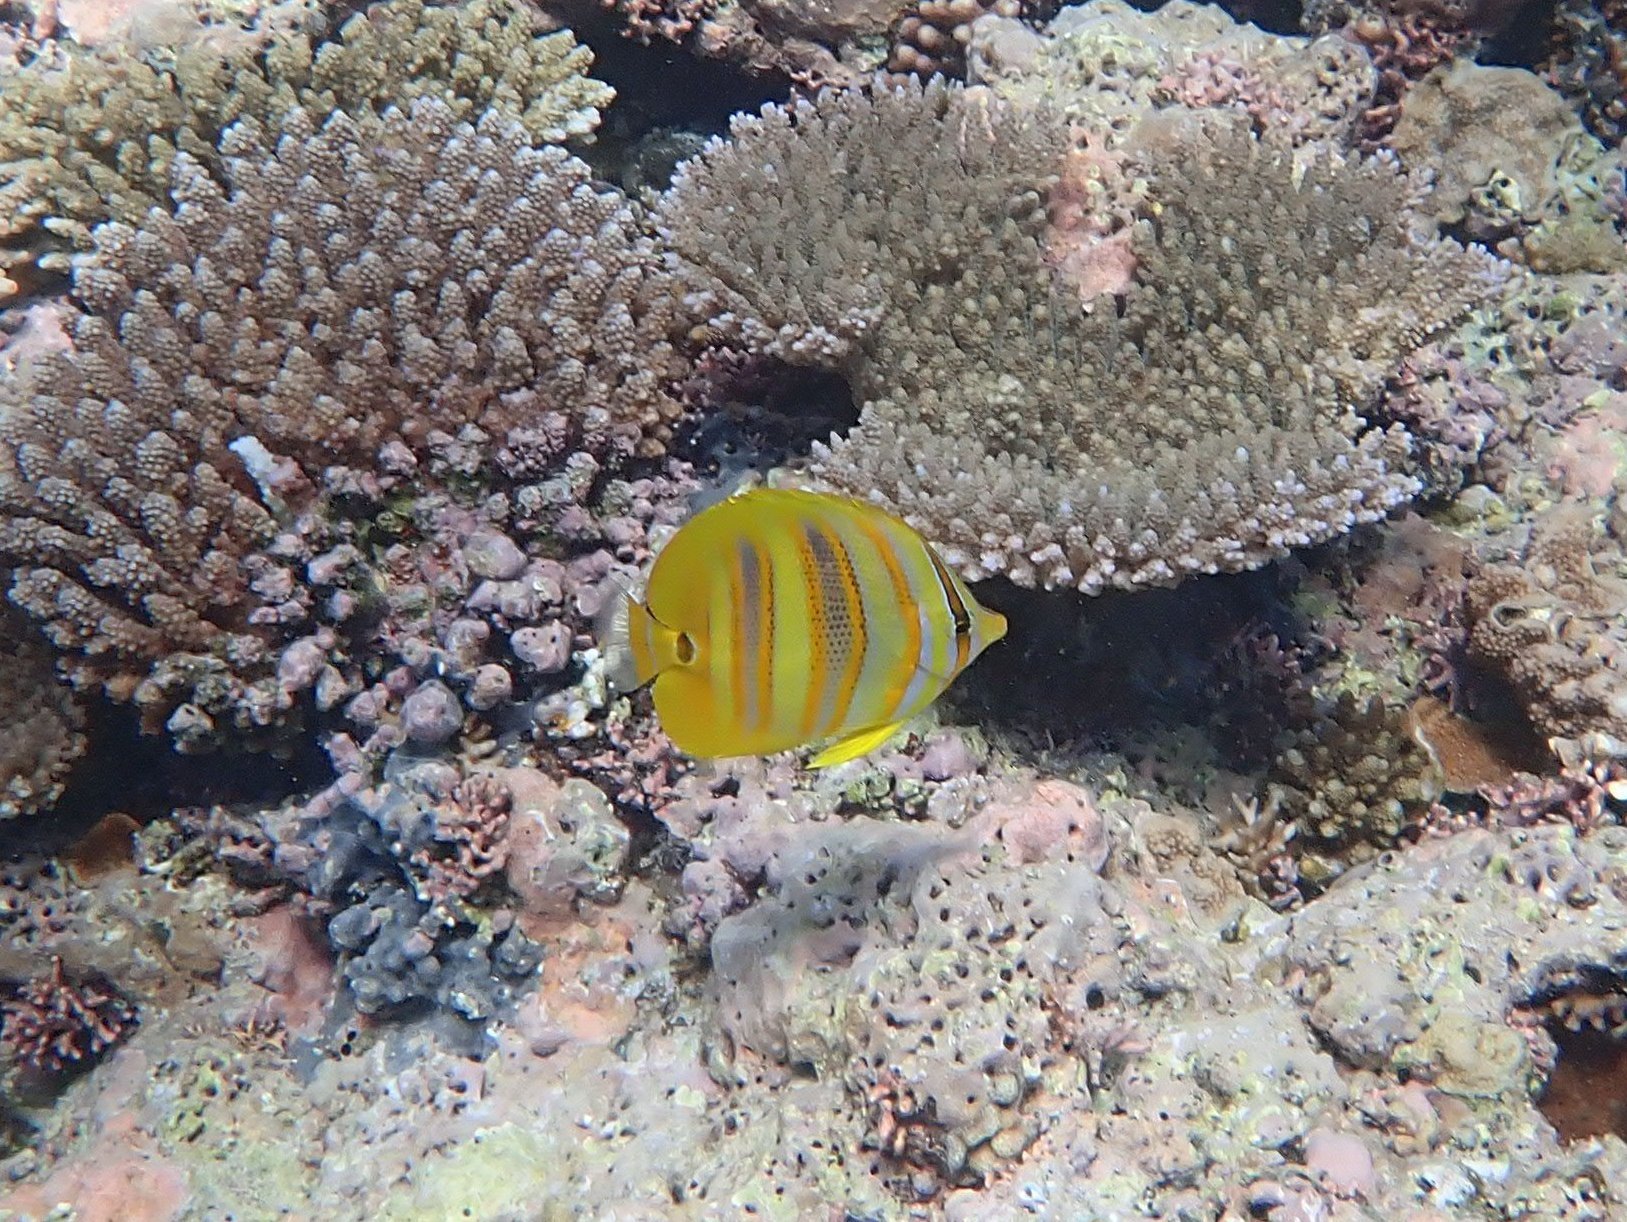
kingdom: Animalia
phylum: Chordata
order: Perciformes
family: Chaetodontidae
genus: Chaetodon
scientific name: Chaetodon rainfordi
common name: Rainford's butterflyfish
